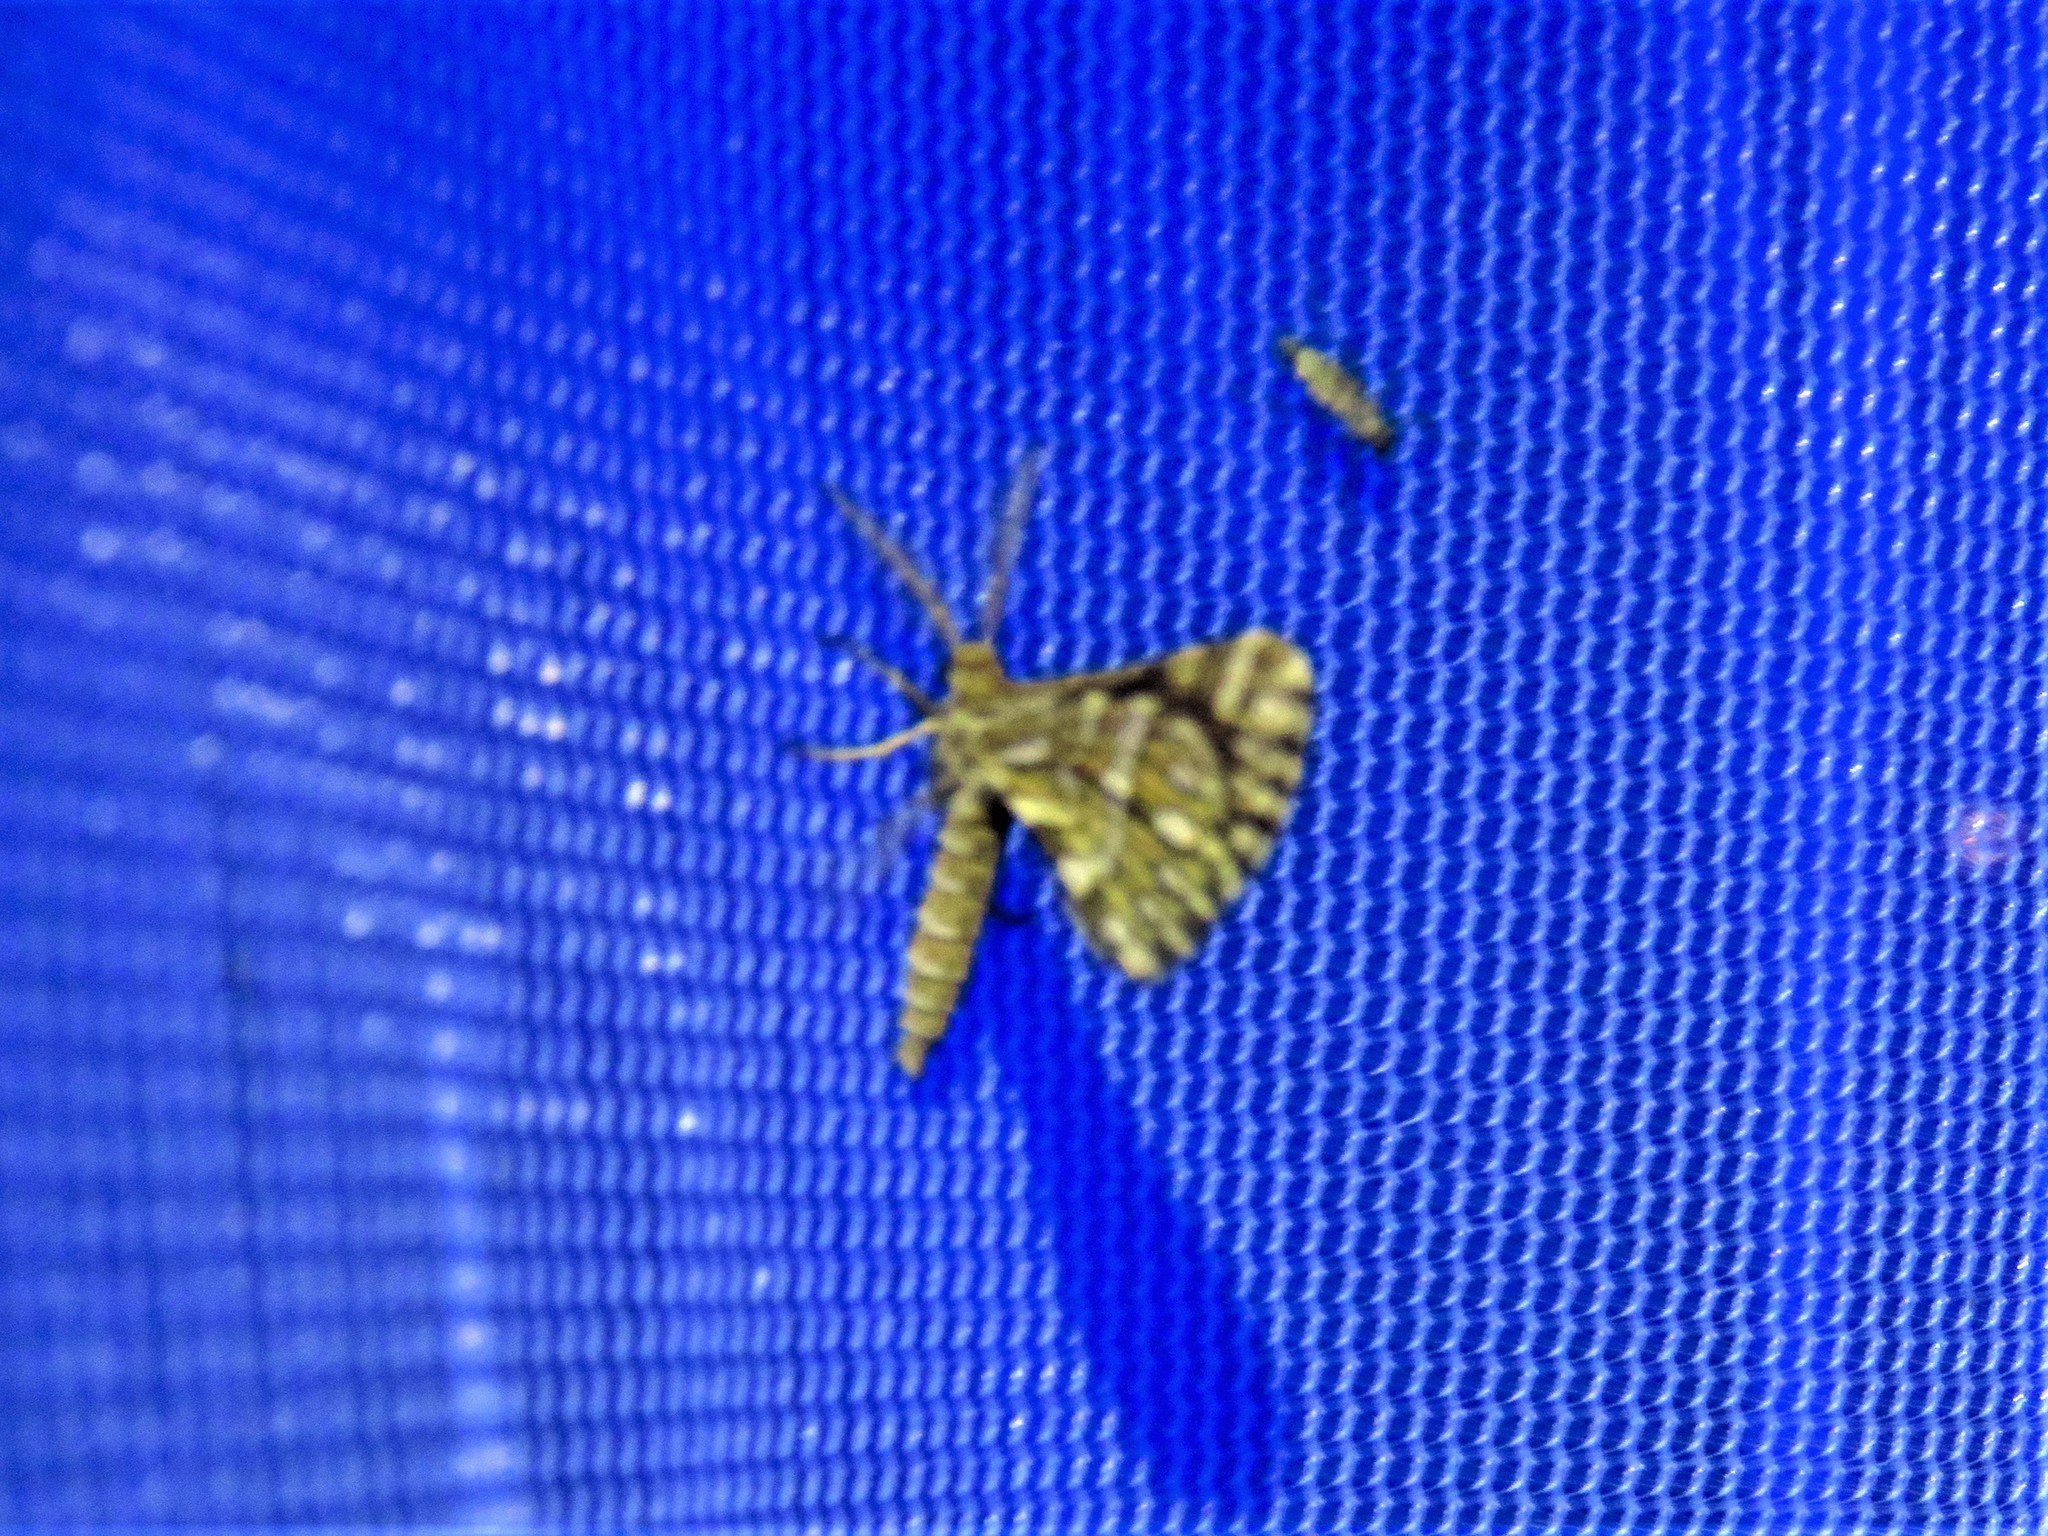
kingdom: Animalia
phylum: Arthropoda
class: Insecta
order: Lepidoptera
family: Geometridae
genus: Narraga
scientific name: Narraga fimetaria
